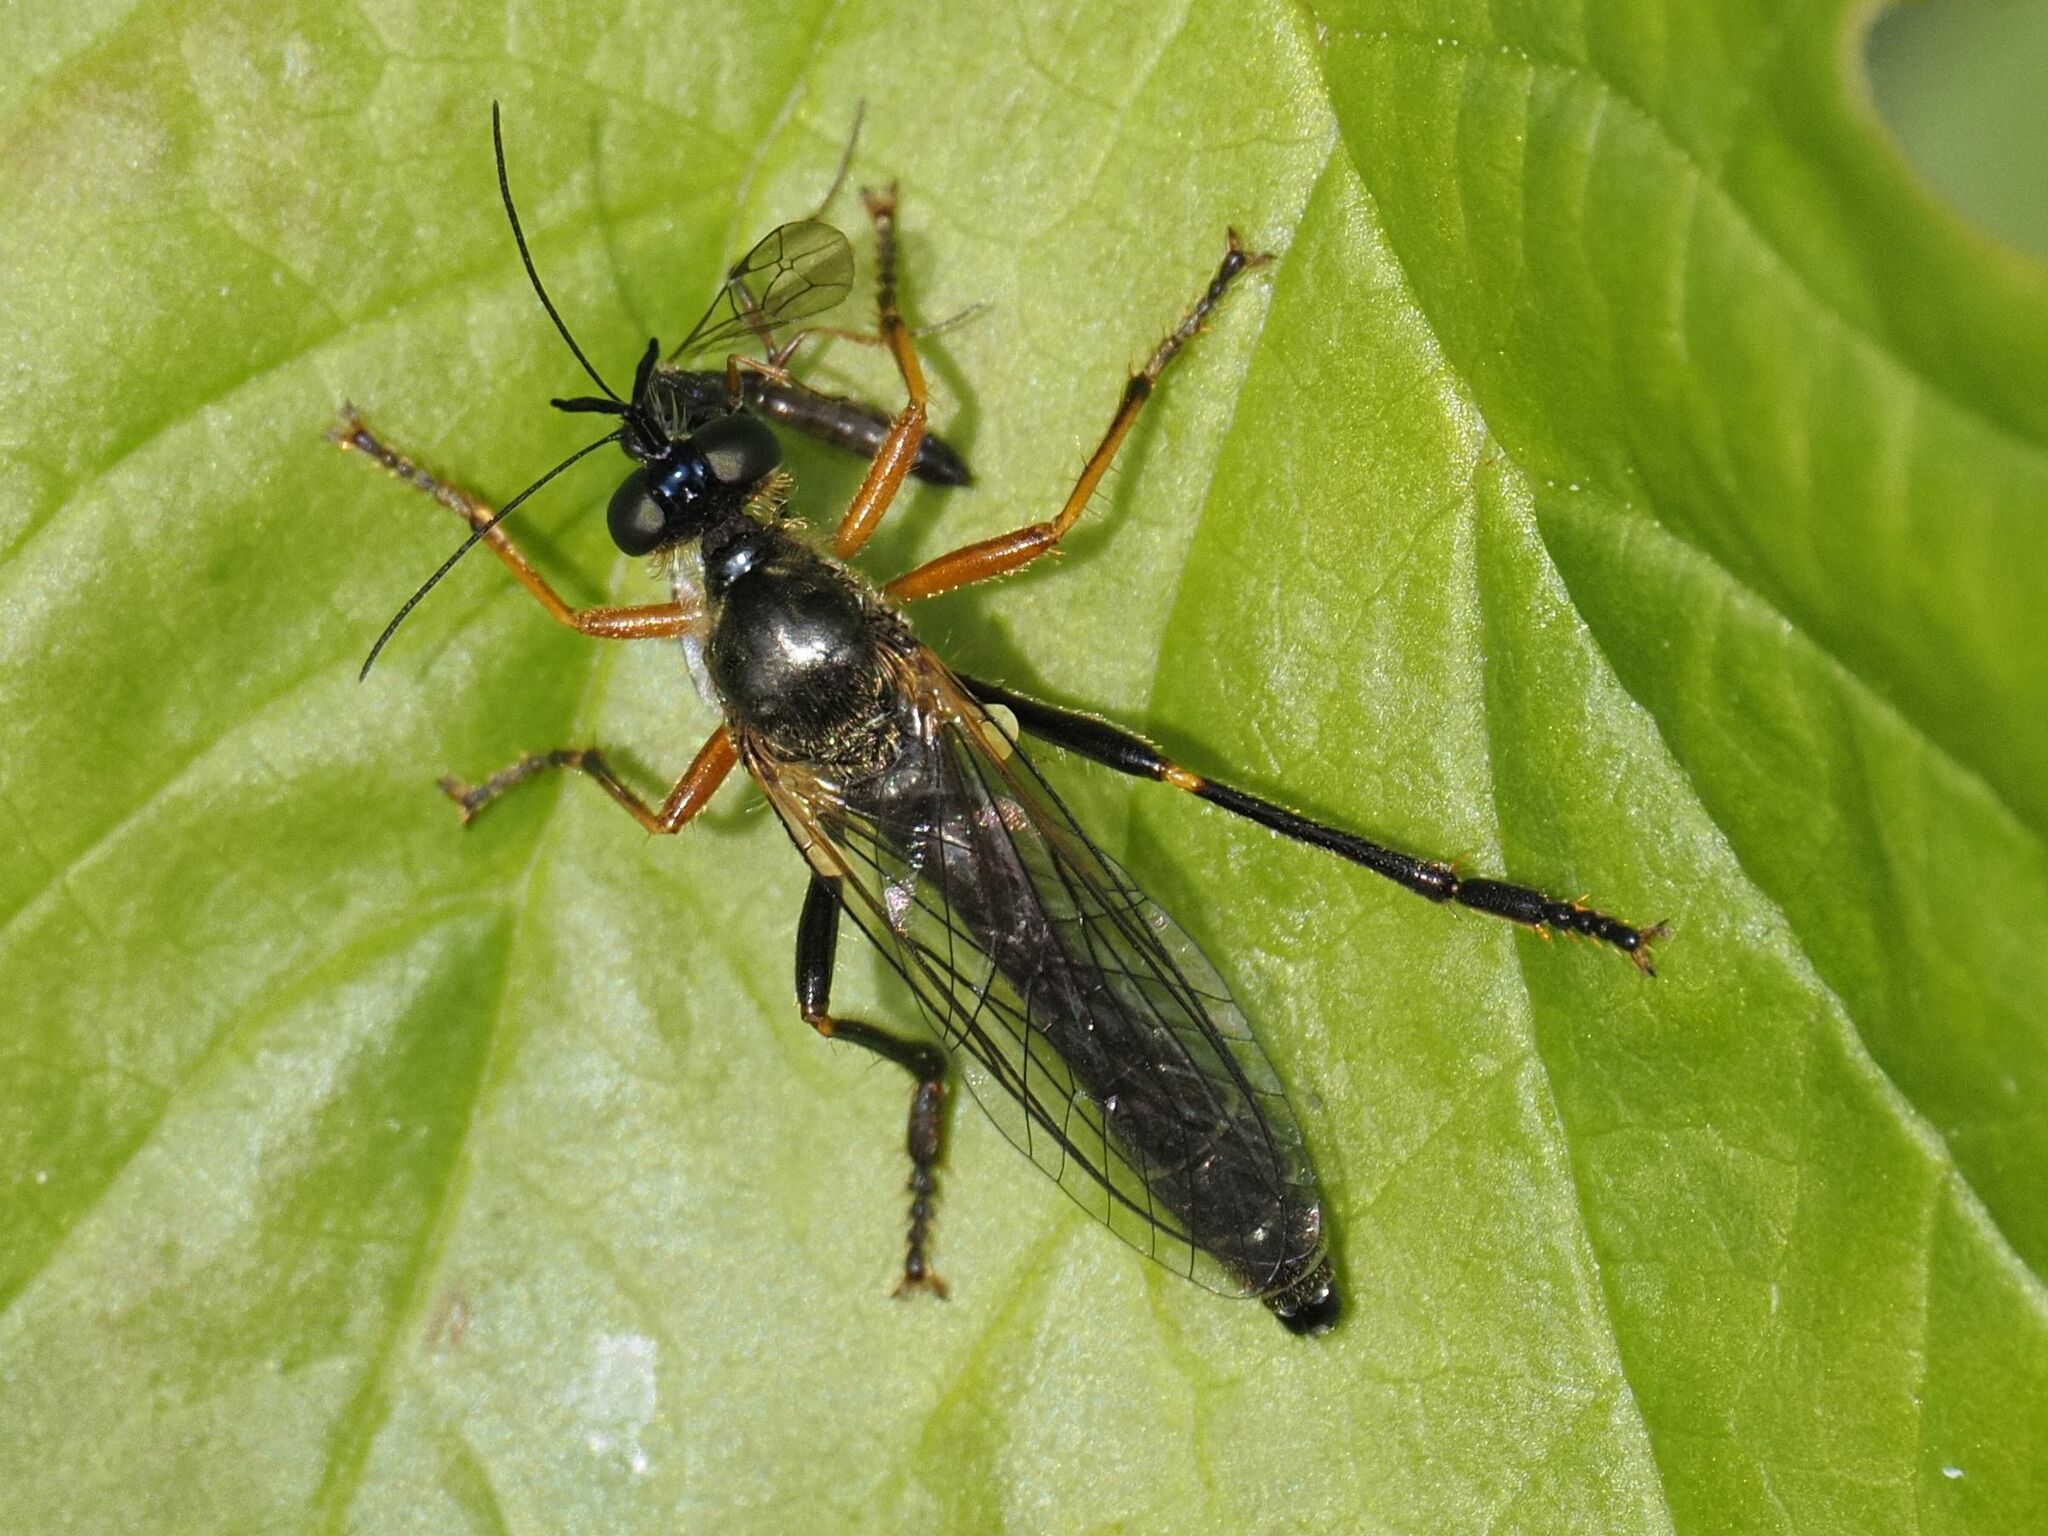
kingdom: Animalia
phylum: Arthropoda
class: Insecta
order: Diptera
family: Asilidae
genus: Dioctria
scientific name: Dioctria rufipes
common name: Common red-legged robberfly
